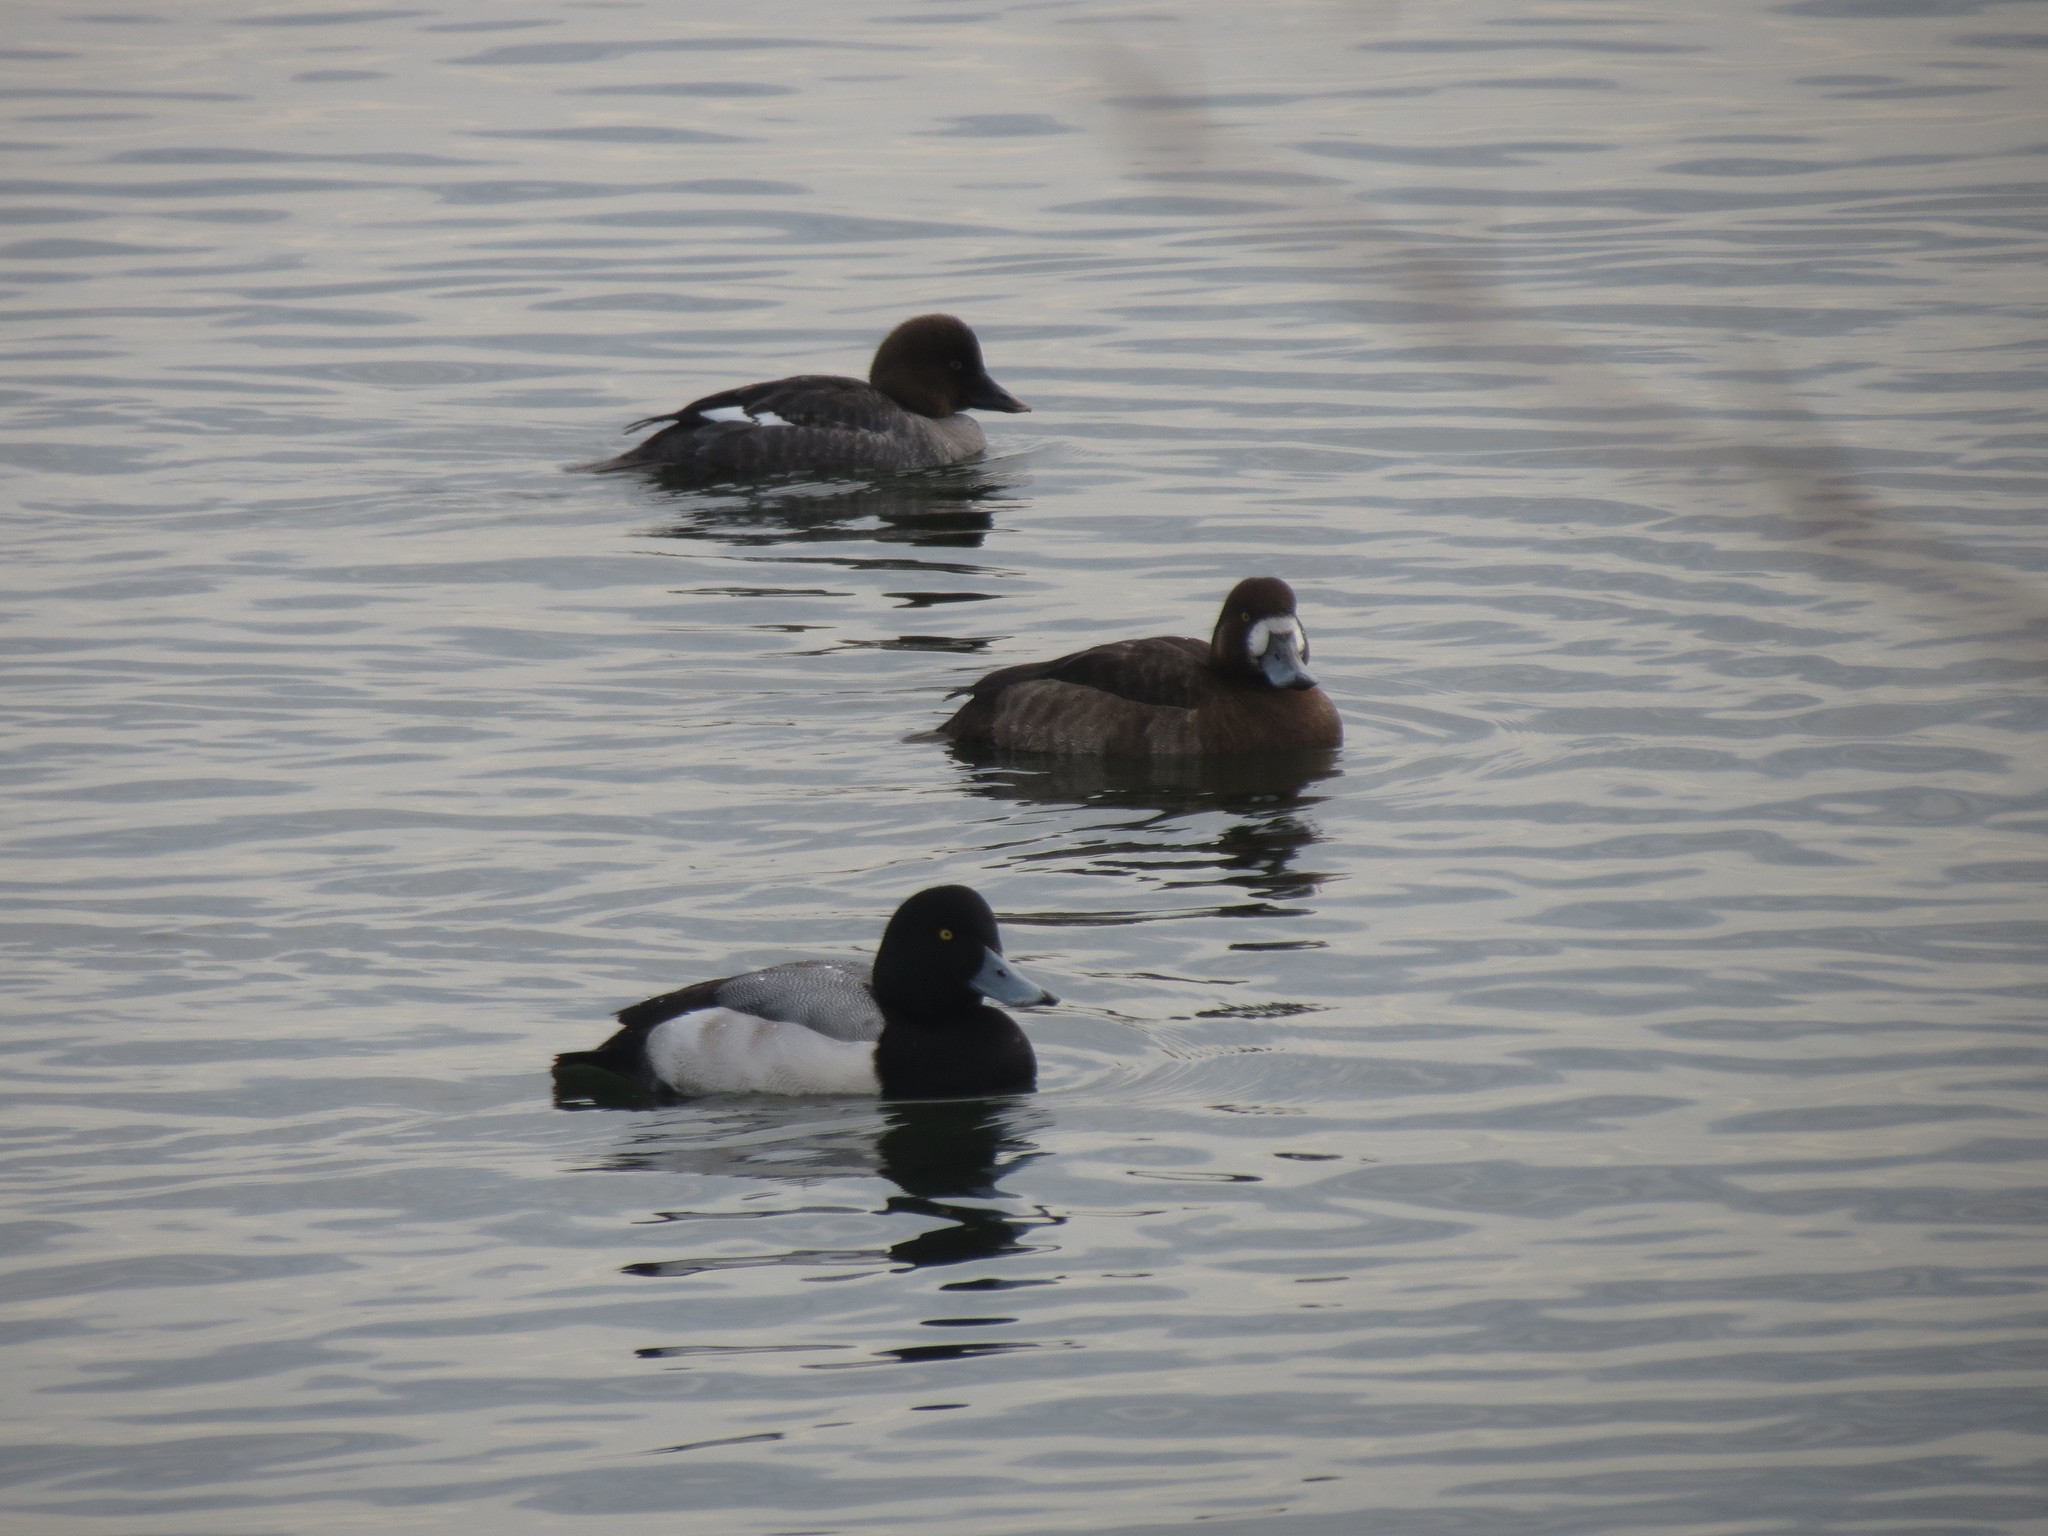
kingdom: Animalia
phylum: Chordata
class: Aves
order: Anseriformes
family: Anatidae
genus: Aythya
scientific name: Aythya marila
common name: Greater scaup
